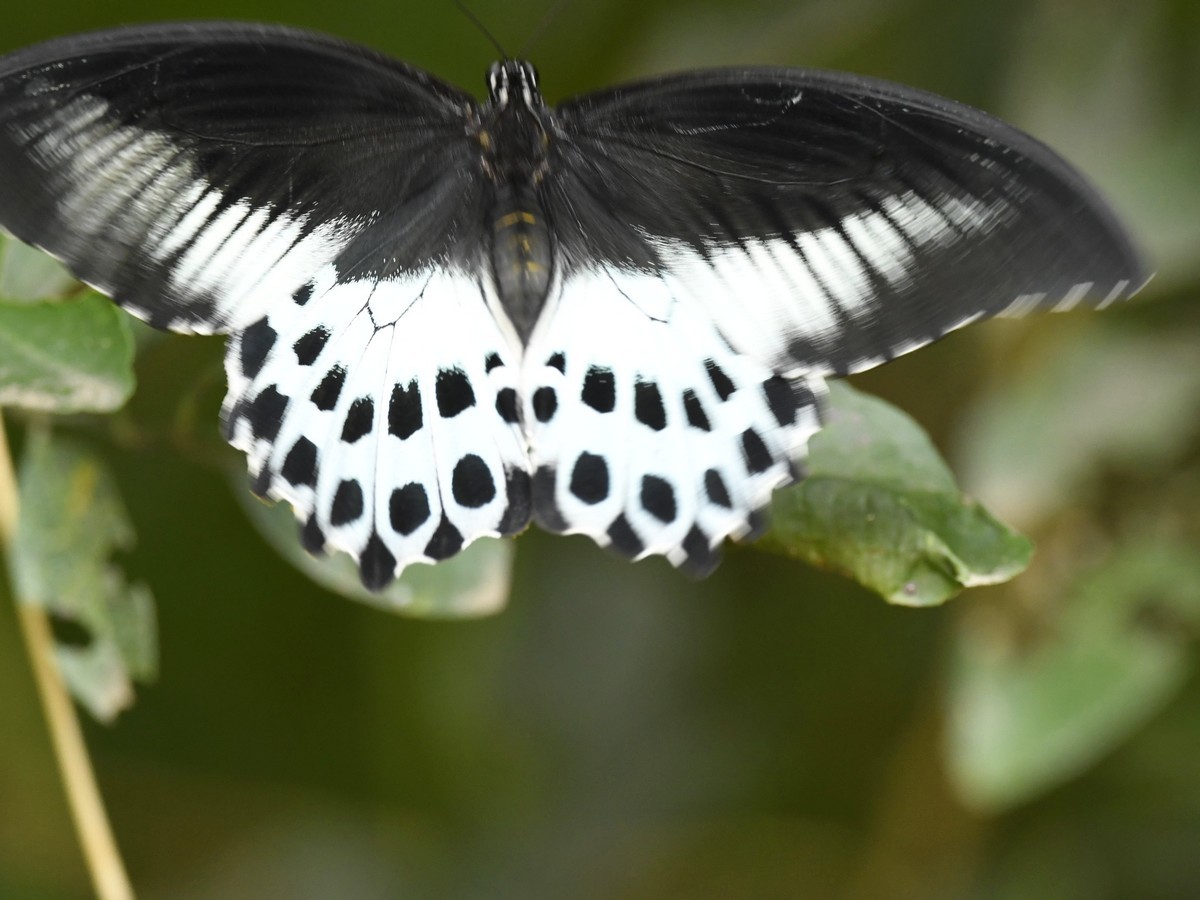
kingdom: Animalia
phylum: Arthropoda
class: Insecta
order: Lepidoptera
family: Papilionidae
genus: Papilio
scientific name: Papilio memnon
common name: Great mormon
